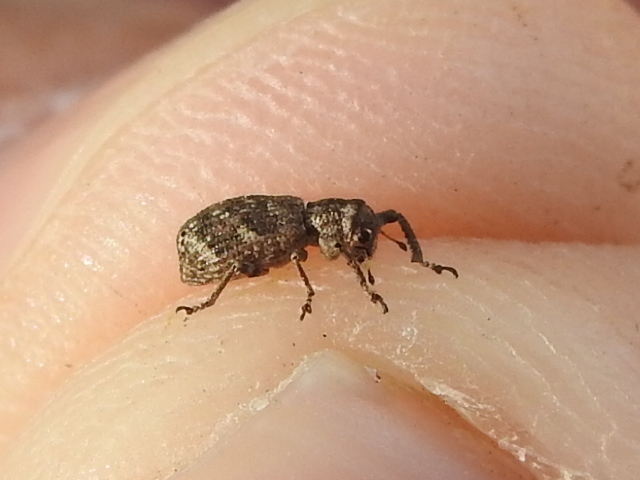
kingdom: Animalia
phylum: Arthropoda
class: Insecta
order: Coleoptera
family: Curculionidae
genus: Pandeleteius
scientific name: Pandeleteius cinereus
